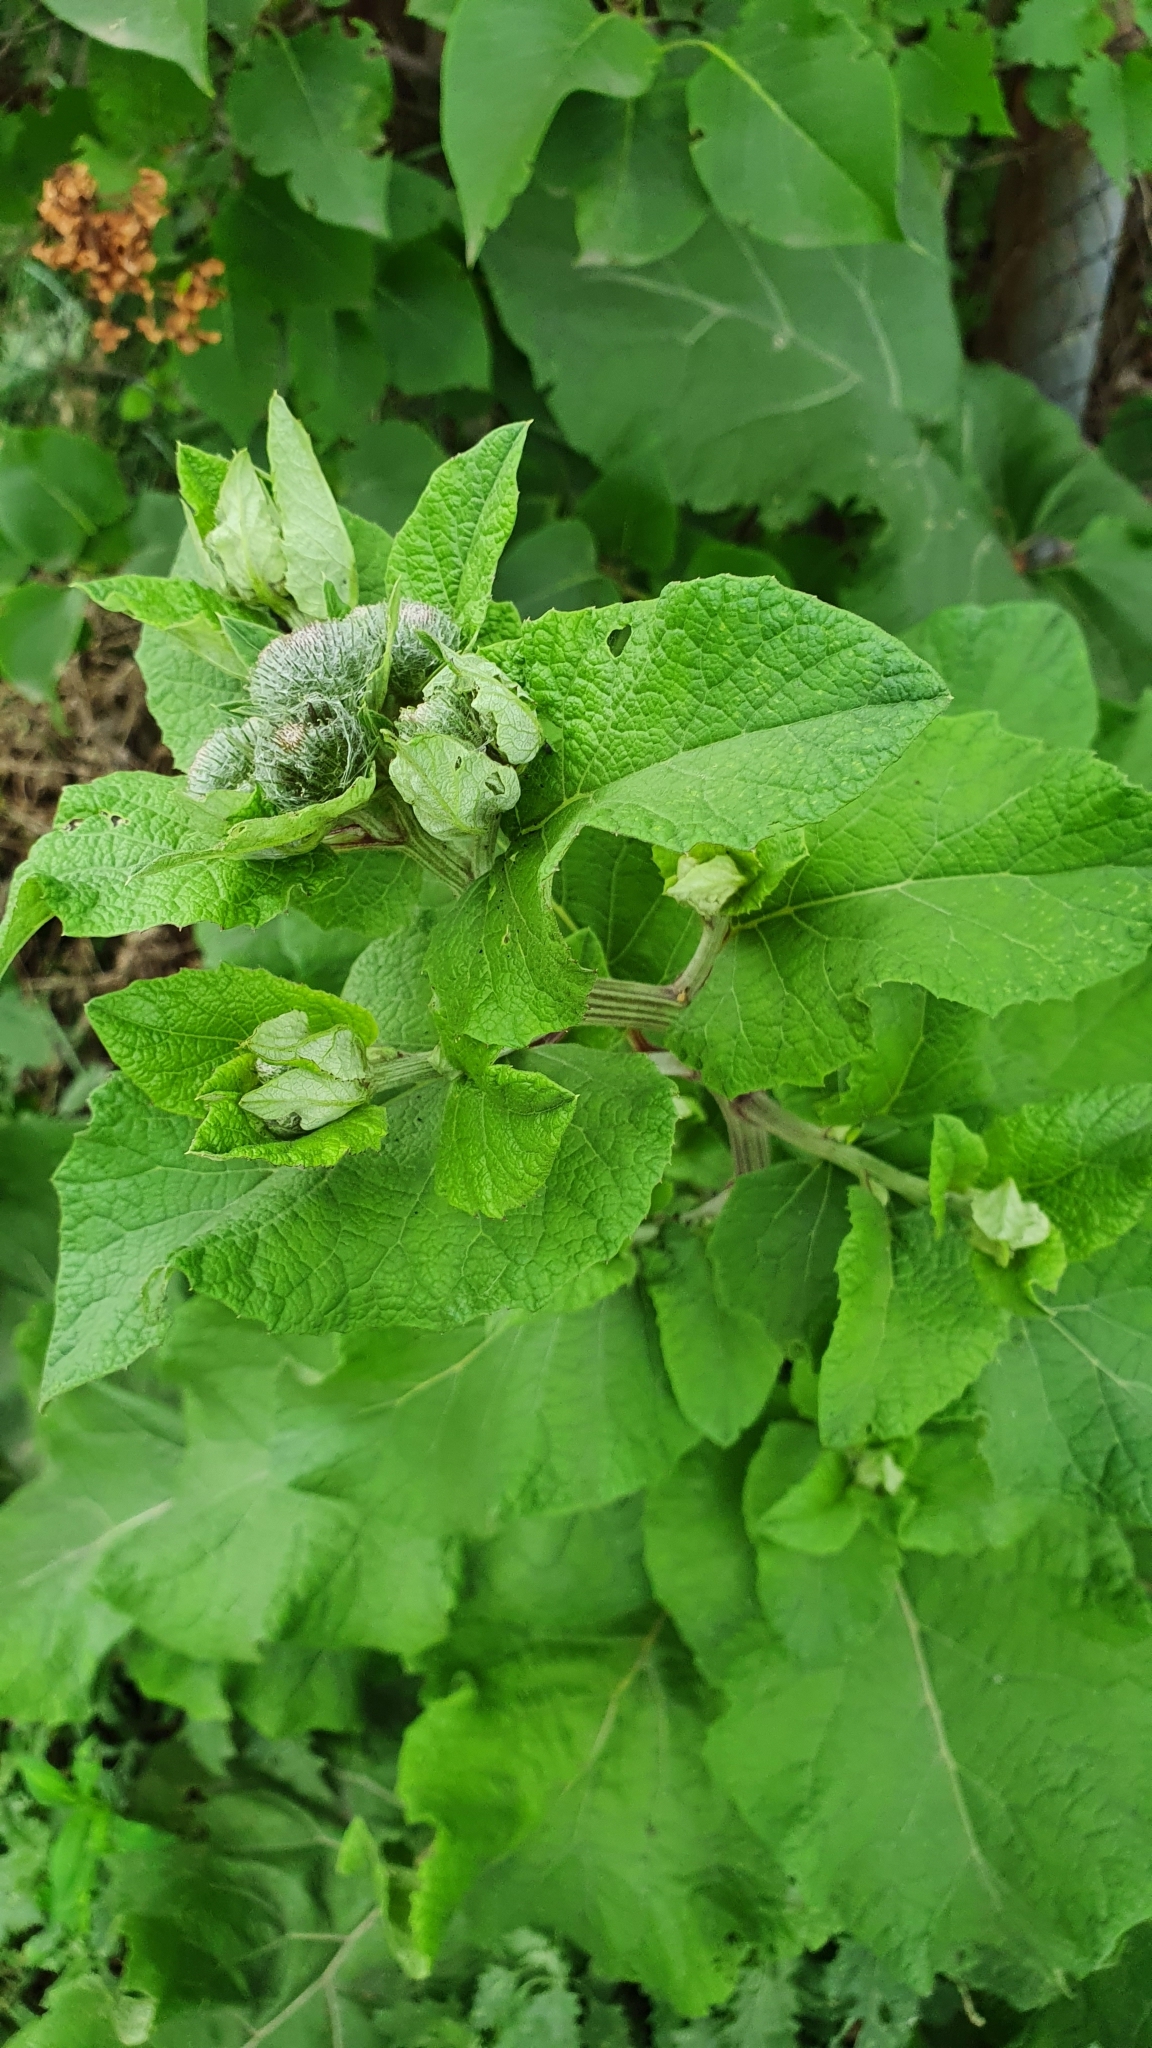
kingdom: Plantae
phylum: Tracheophyta
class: Magnoliopsida
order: Asterales
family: Asteraceae
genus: Arctium
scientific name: Arctium tomentosum
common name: Woolly burdock
